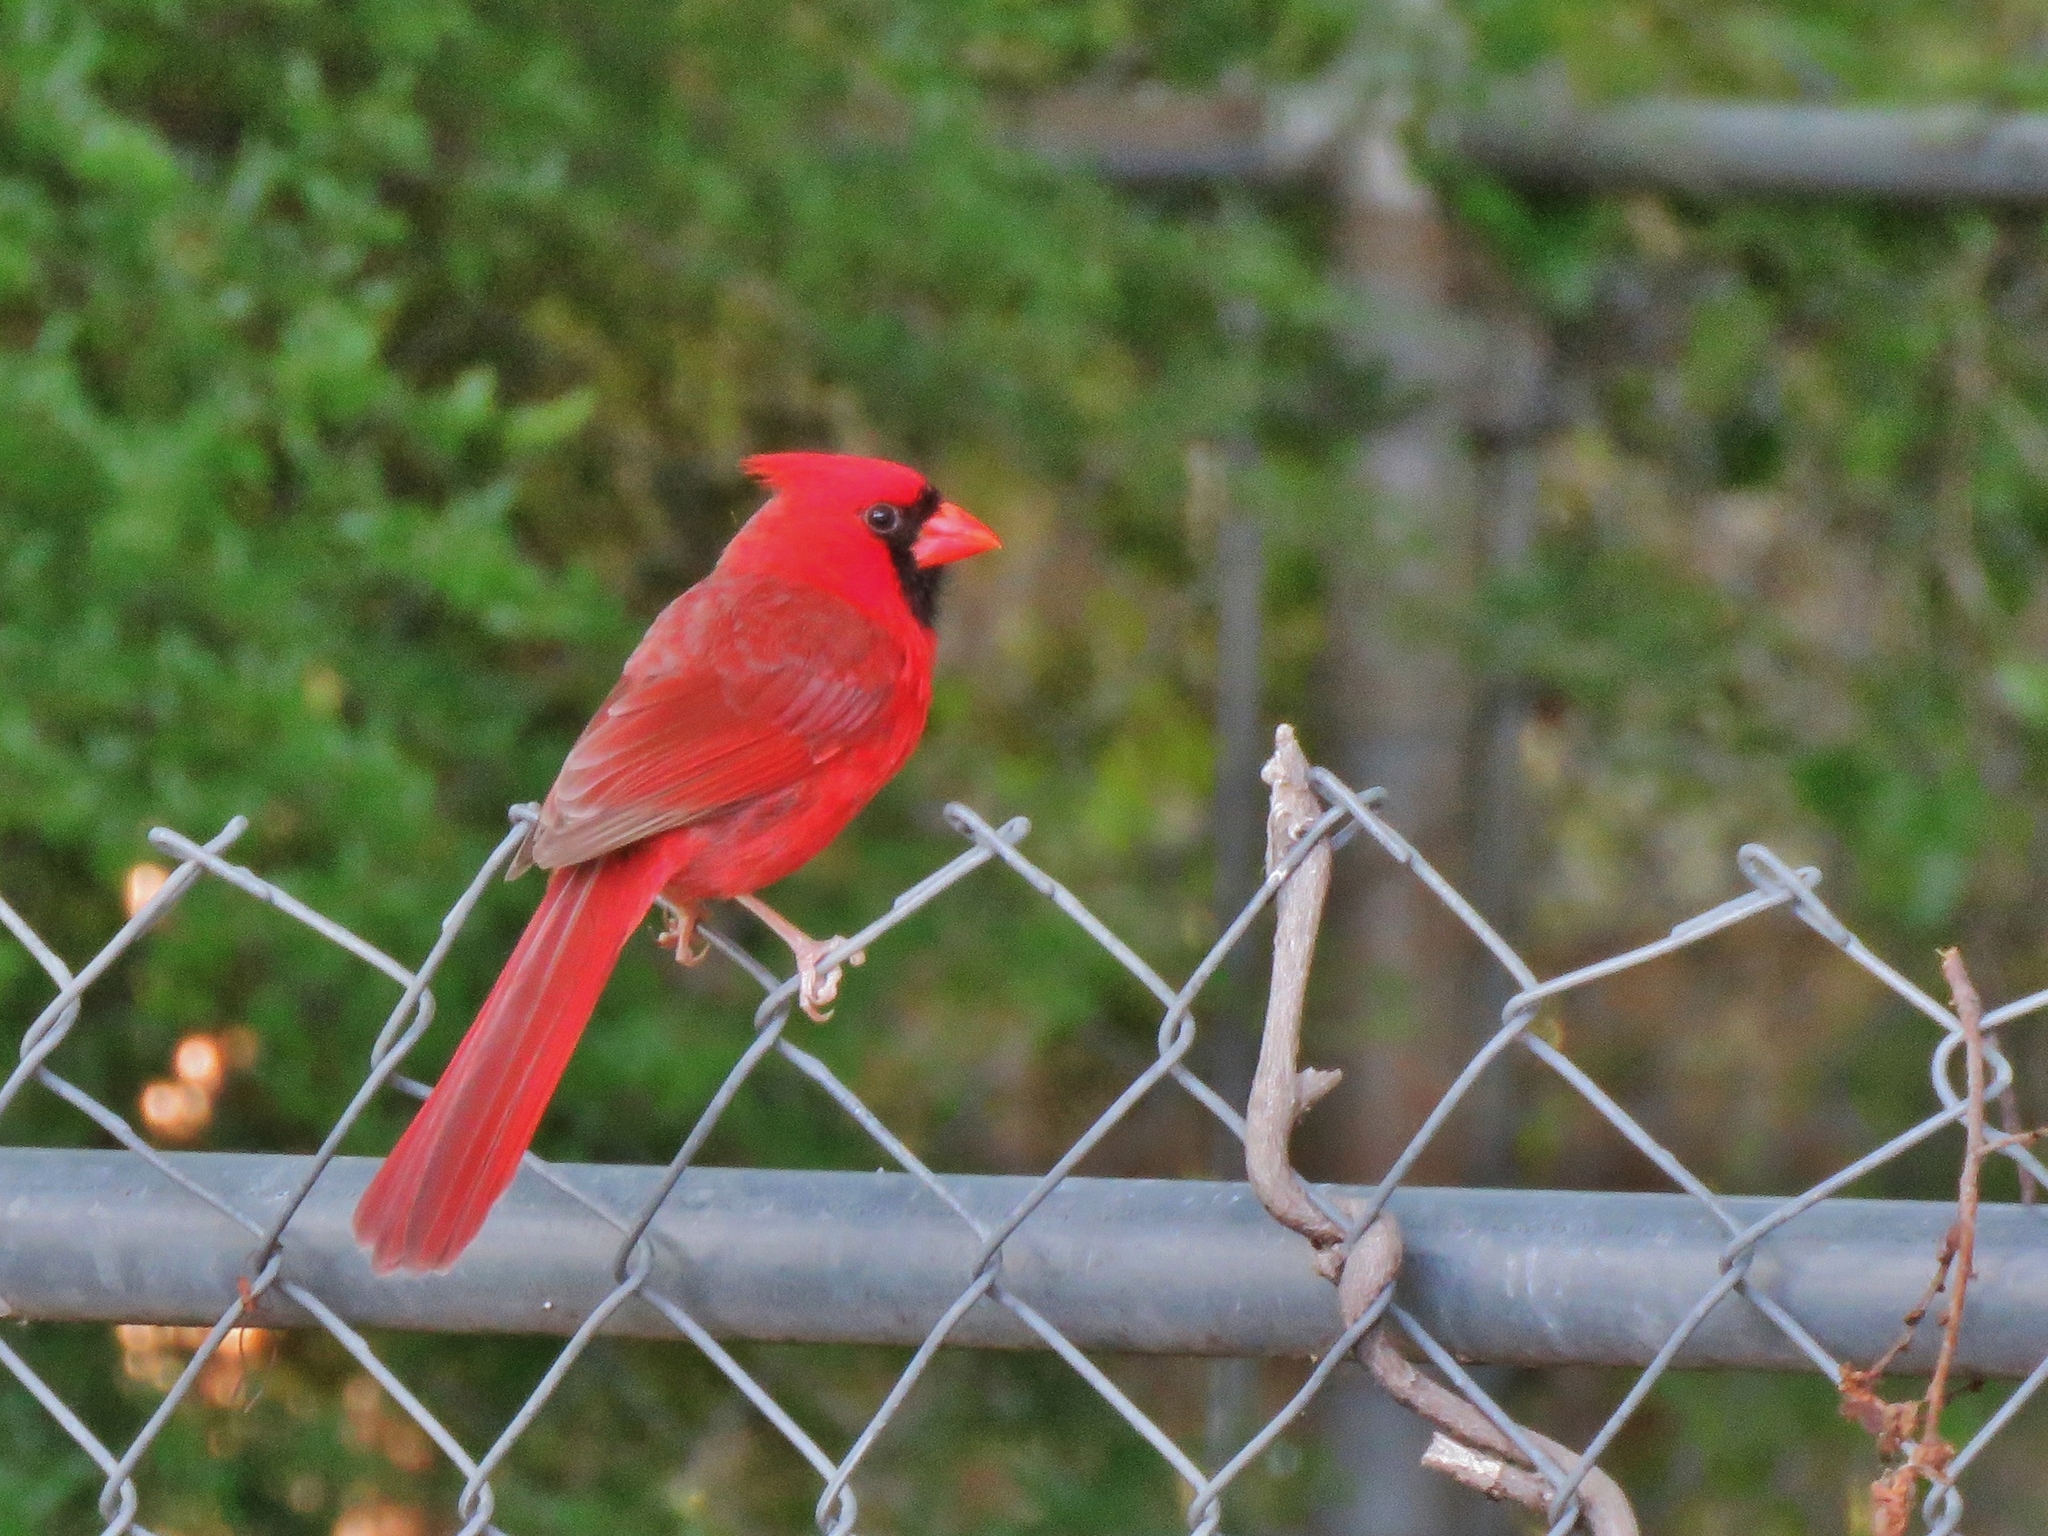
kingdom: Animalia
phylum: Chordata
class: Aves
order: Passeriformes
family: Cardinalidae
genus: Cardinalis
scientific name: Cardinalis cardinalis
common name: Northern cardinal
